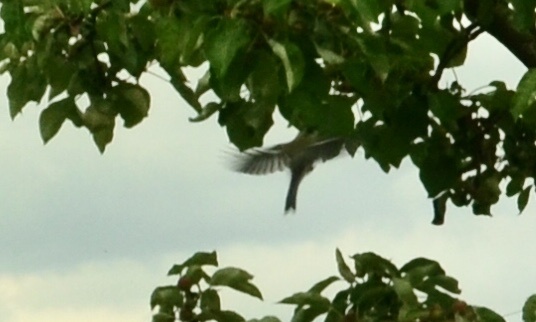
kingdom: Animalia
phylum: Chordata
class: Aves
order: Passeriformes
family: Paridae
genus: Parus
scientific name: Parus major
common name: Great tit
